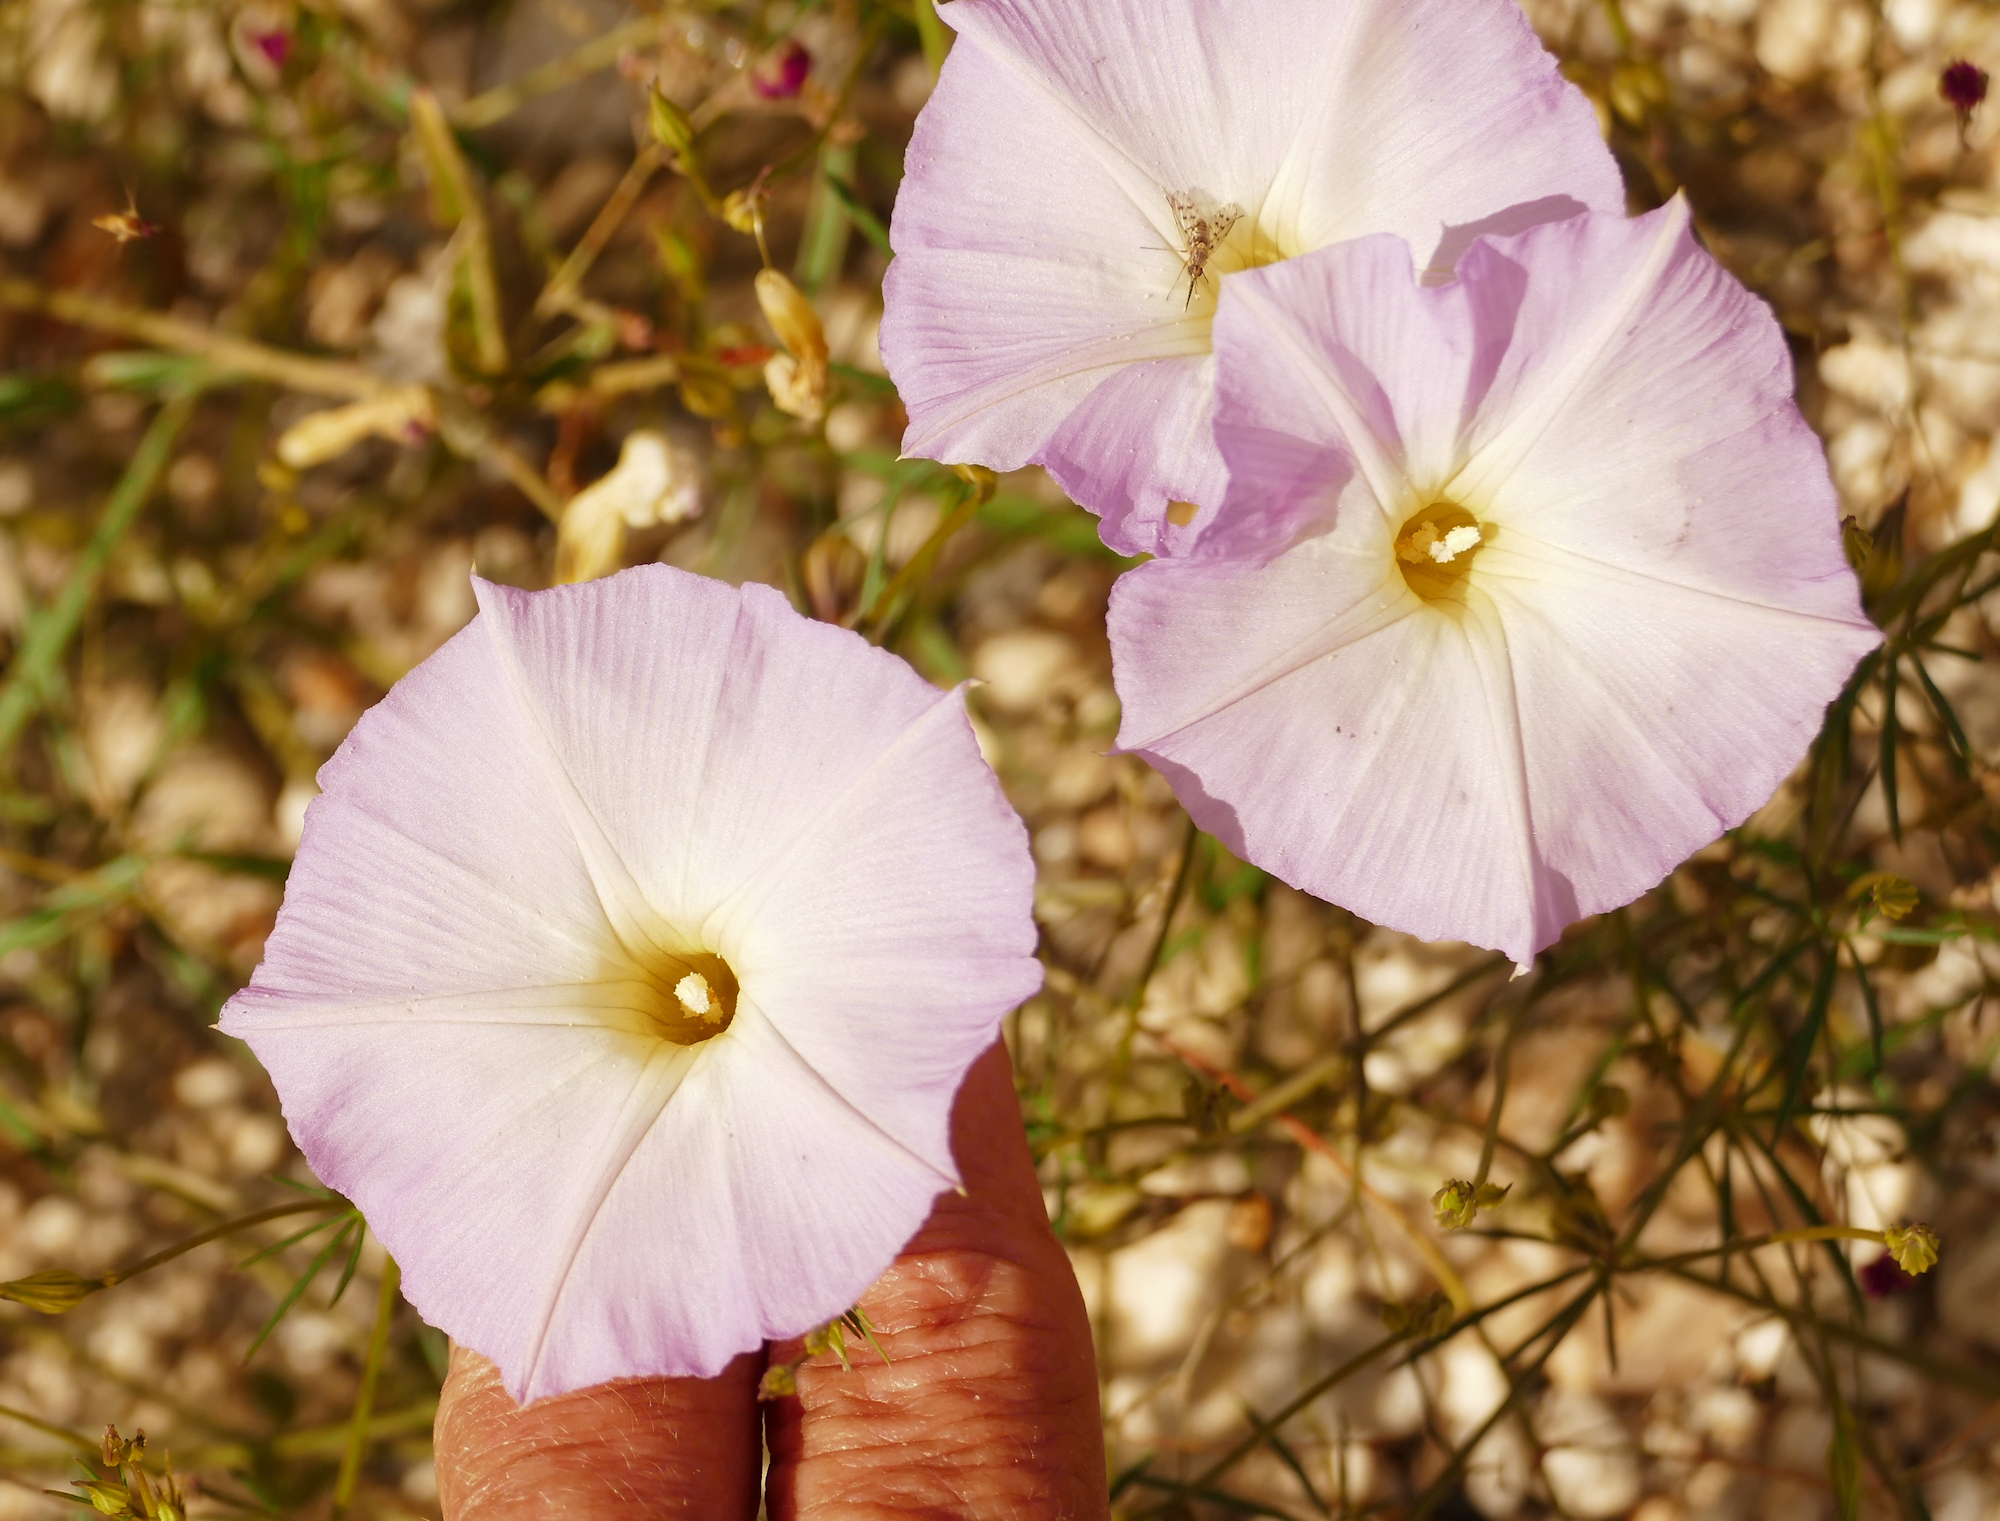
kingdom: Plantae
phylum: Tracheophyta
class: Magnoliopsida
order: Solanales
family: Convolvulaceae
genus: Ipomoea
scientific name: Ipomoea ternifolia
